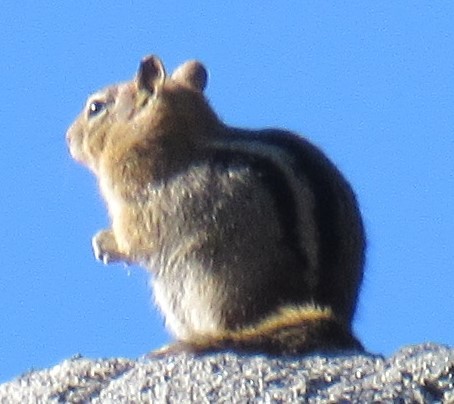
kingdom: Animalia
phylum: Chordata
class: Mammalia
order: Rodentia
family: Sciuridae
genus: Callospermophilus
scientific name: Callospermophilus lateralis
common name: Golden-mantled ground squirrel
